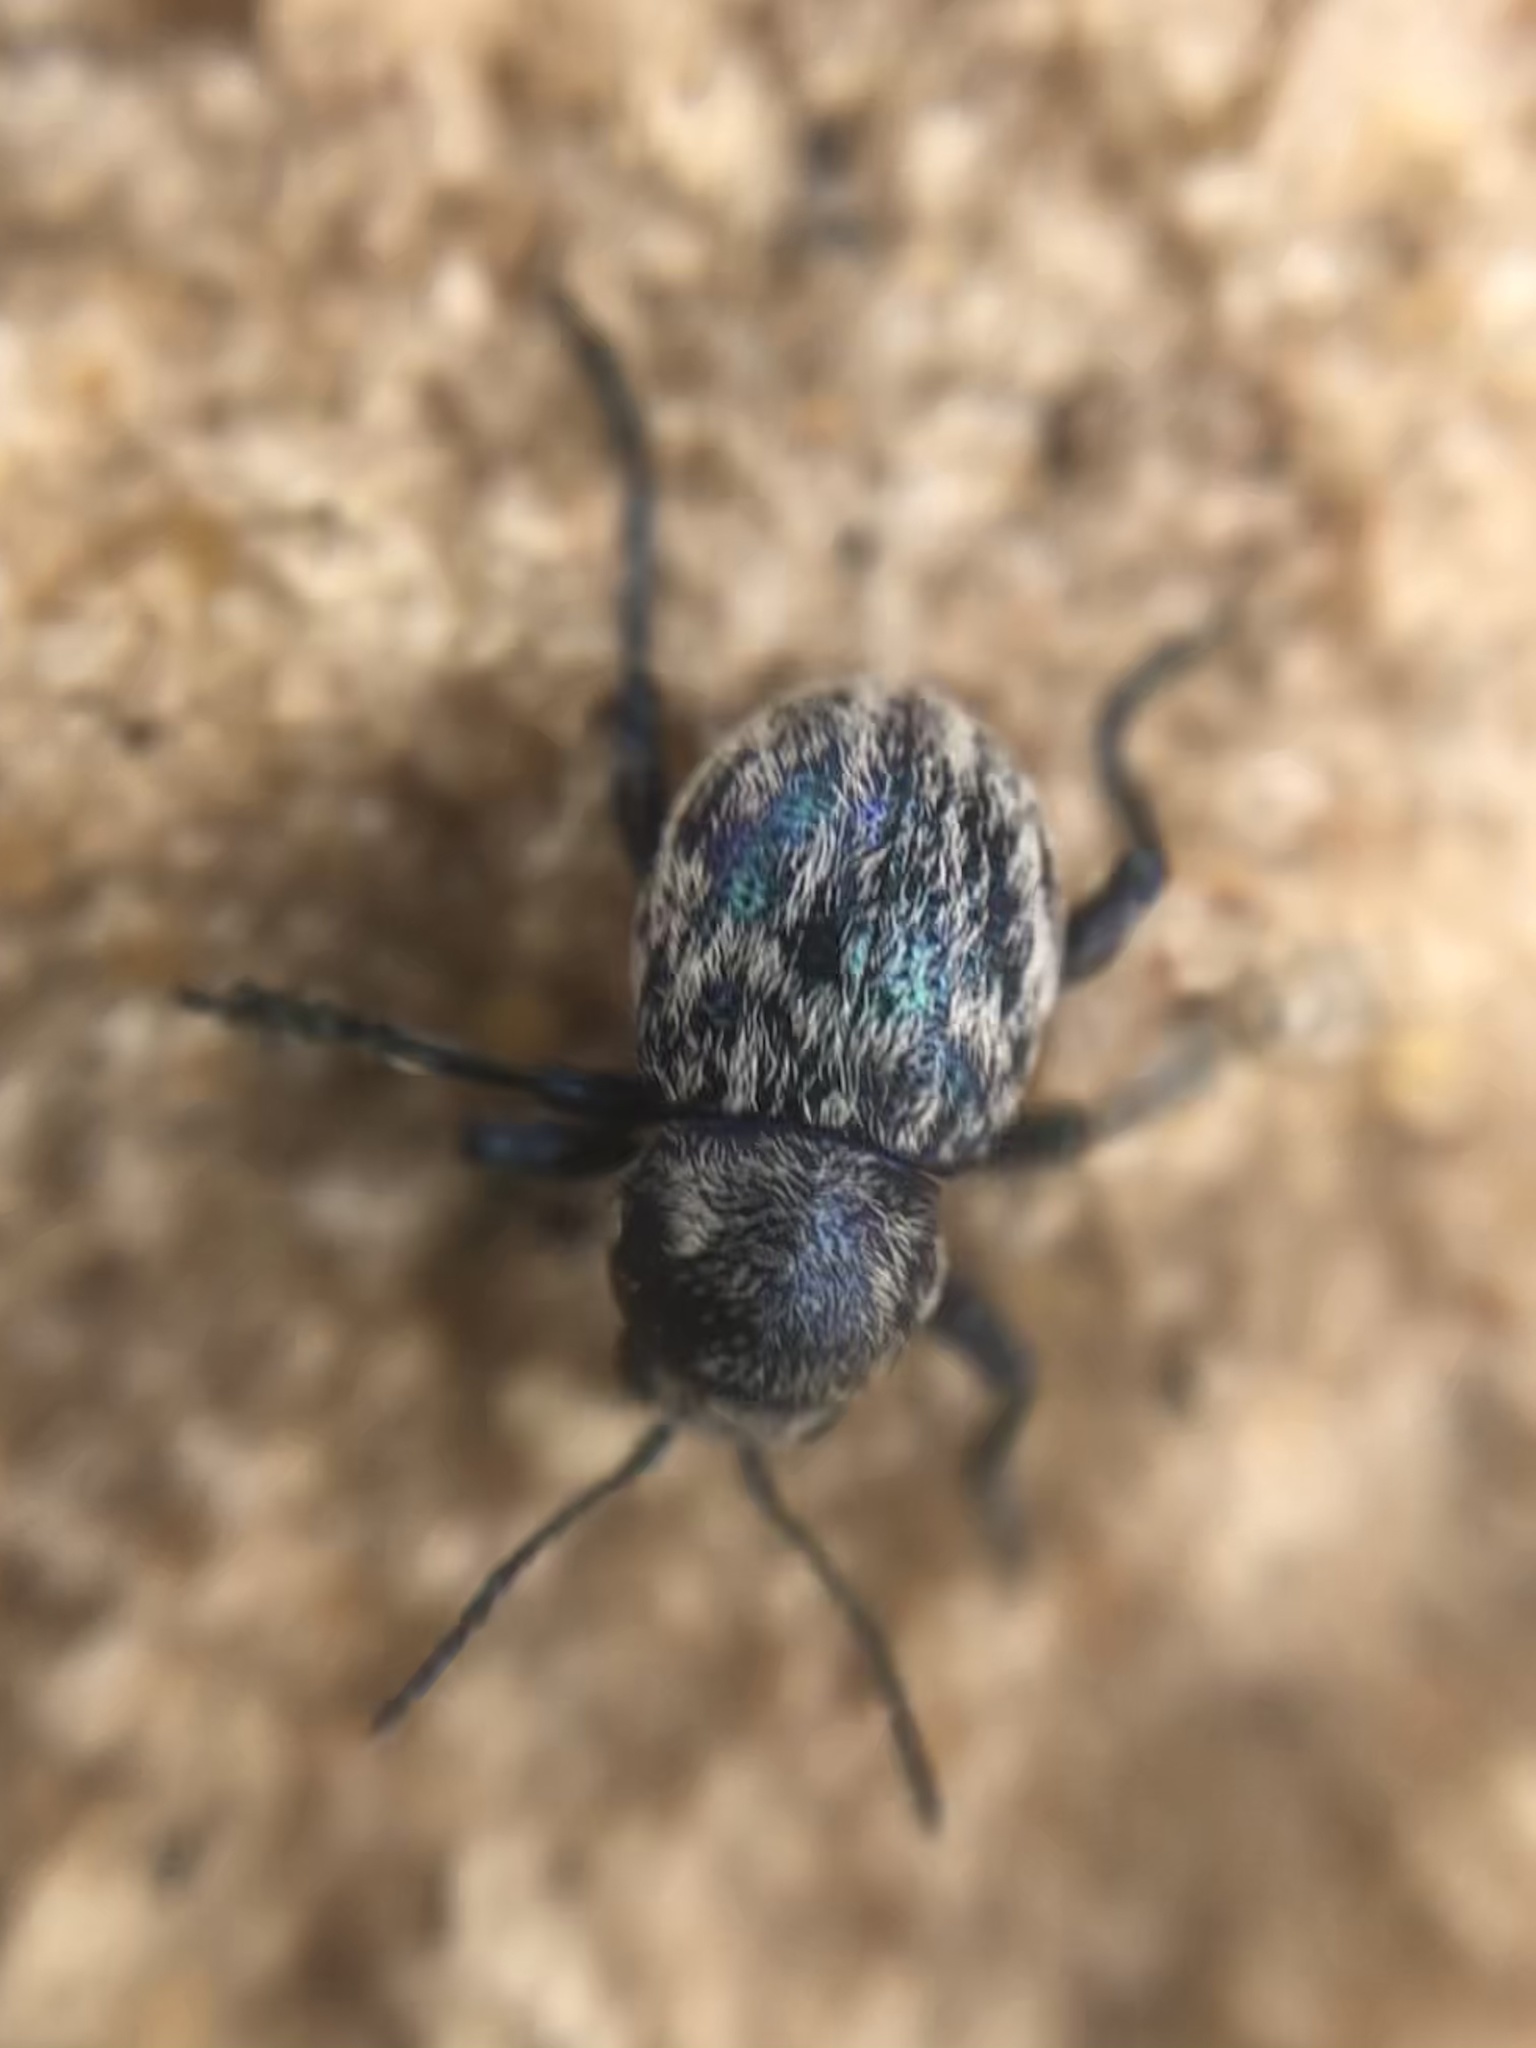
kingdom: Animalia
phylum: Arthropoda
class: Insecta
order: Coleoptera
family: Chrysomelidae
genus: Graphops
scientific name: Graphops comosa
